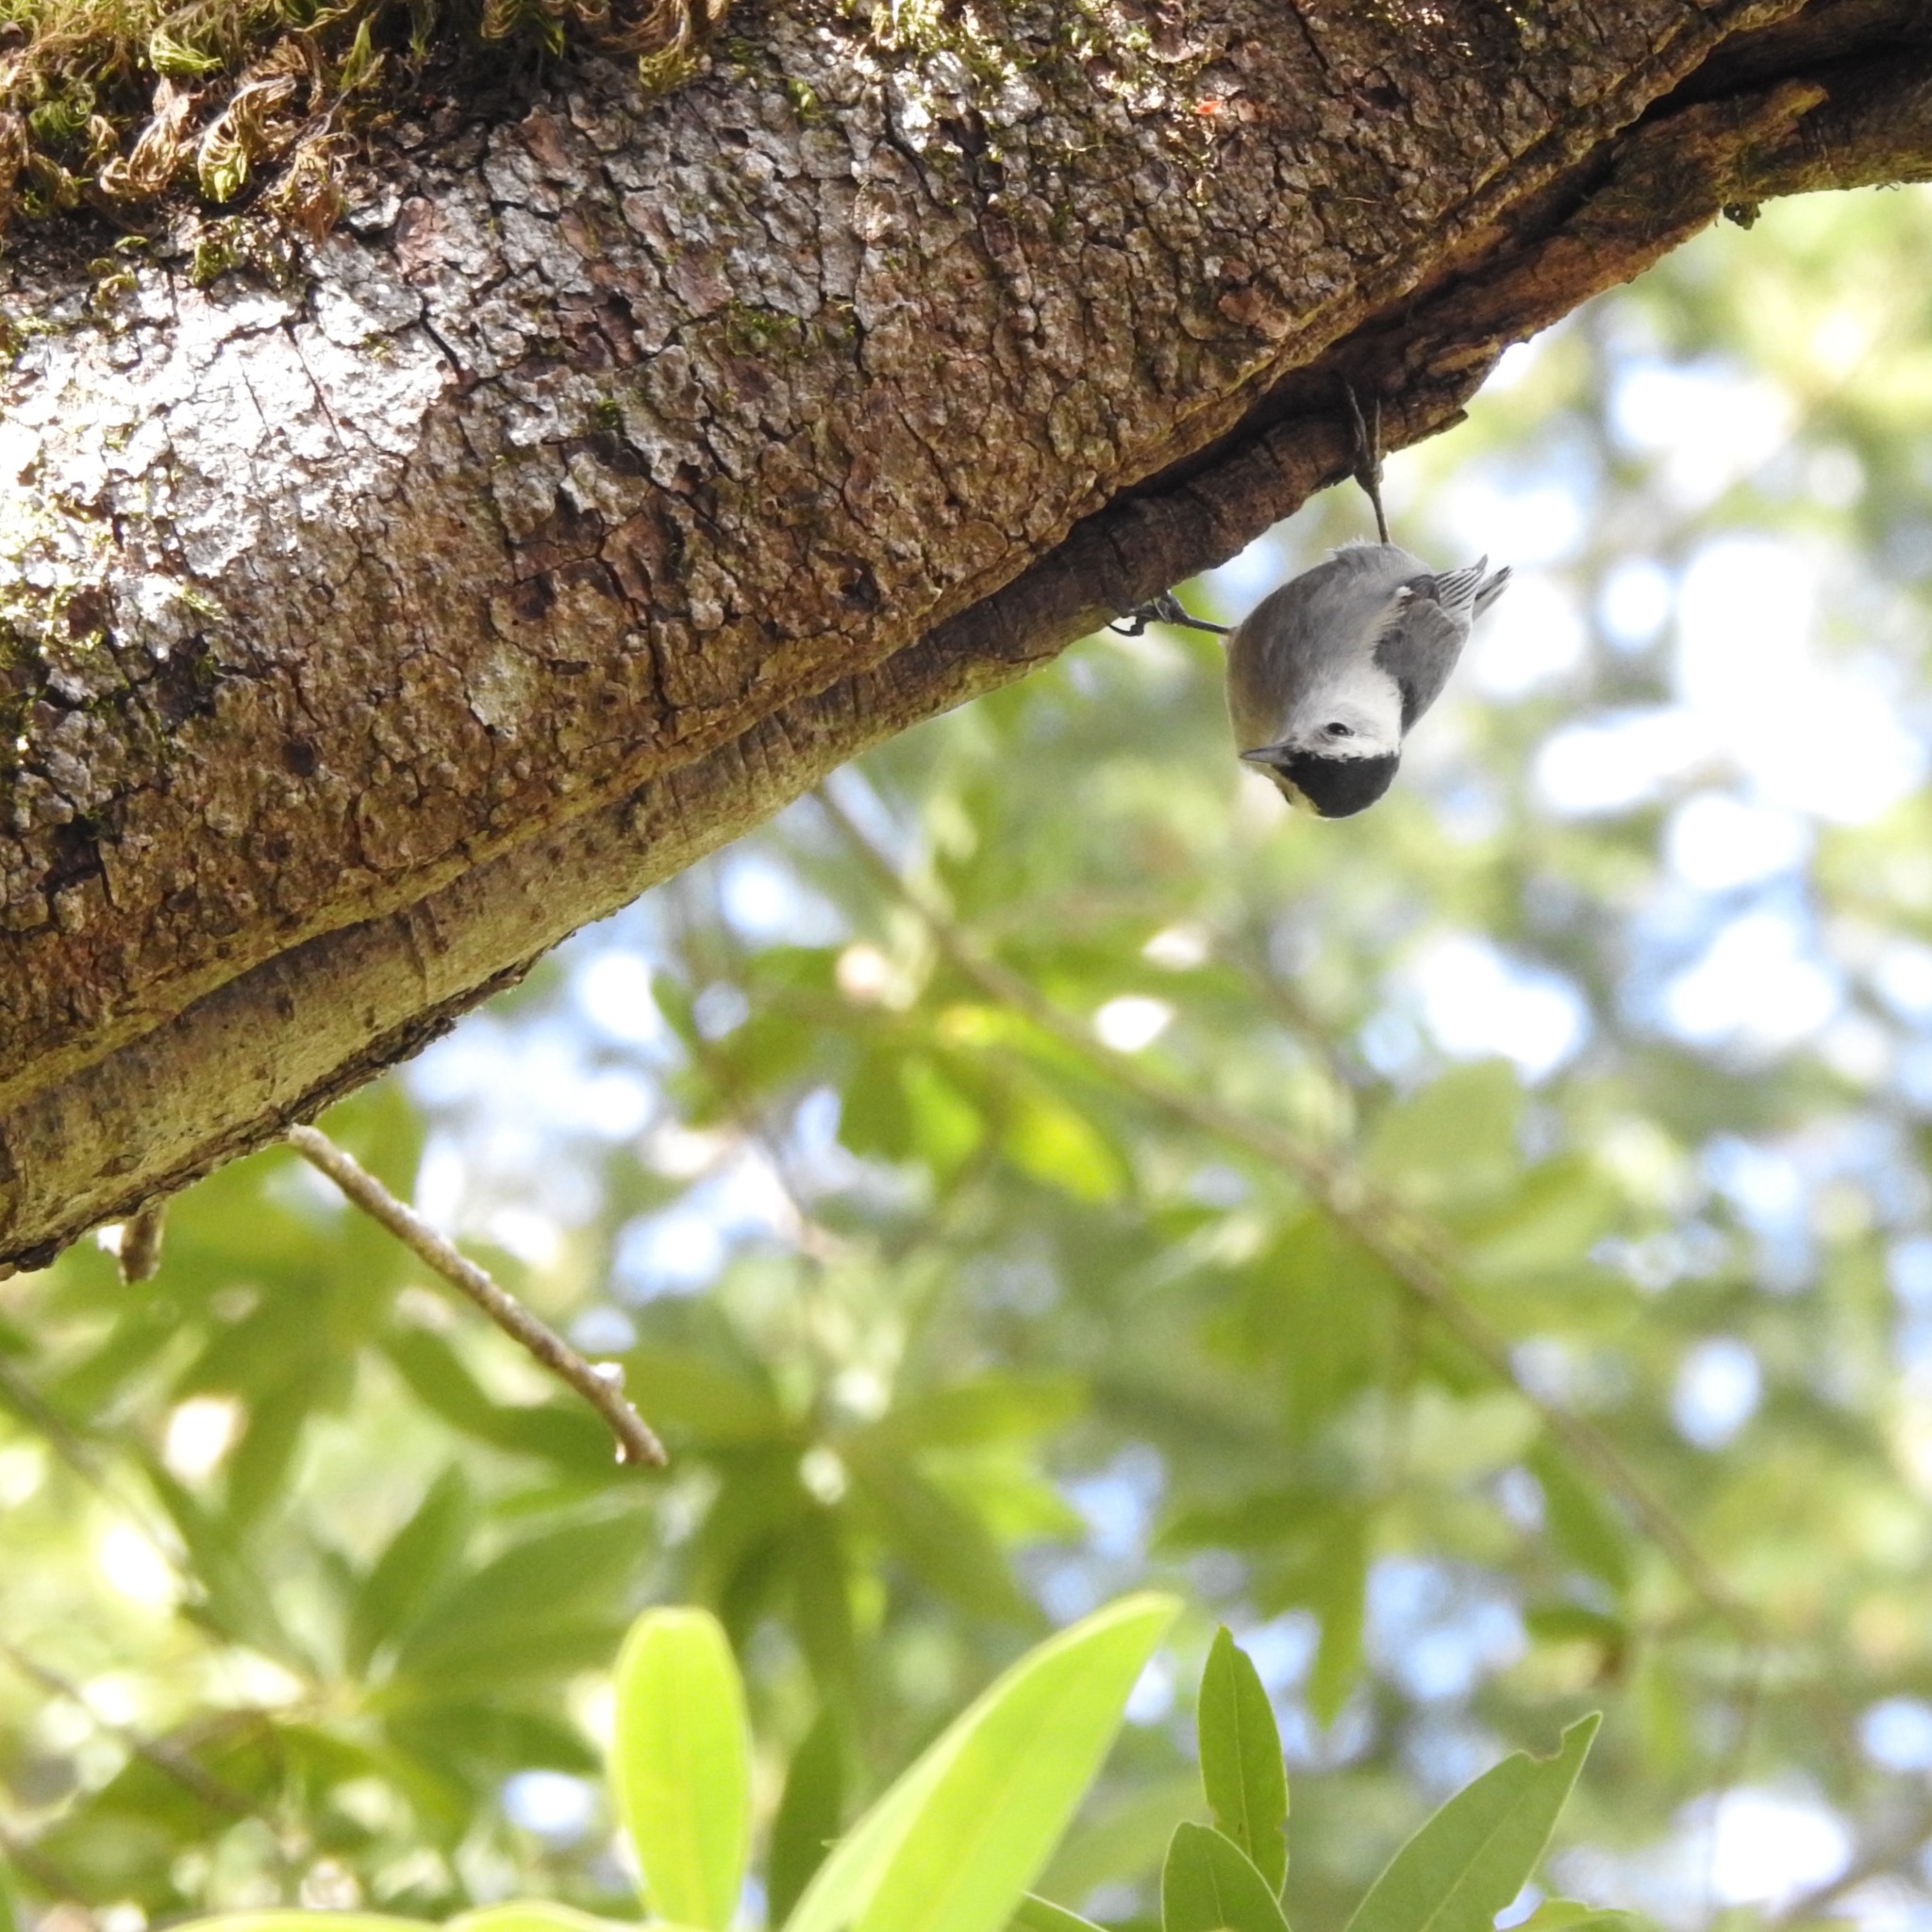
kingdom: Animalia
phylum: Chordata
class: Aves
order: Passeriformes
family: Sittidae
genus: Sitta
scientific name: Sitta carolinensis
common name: White-breasted nuthatch
